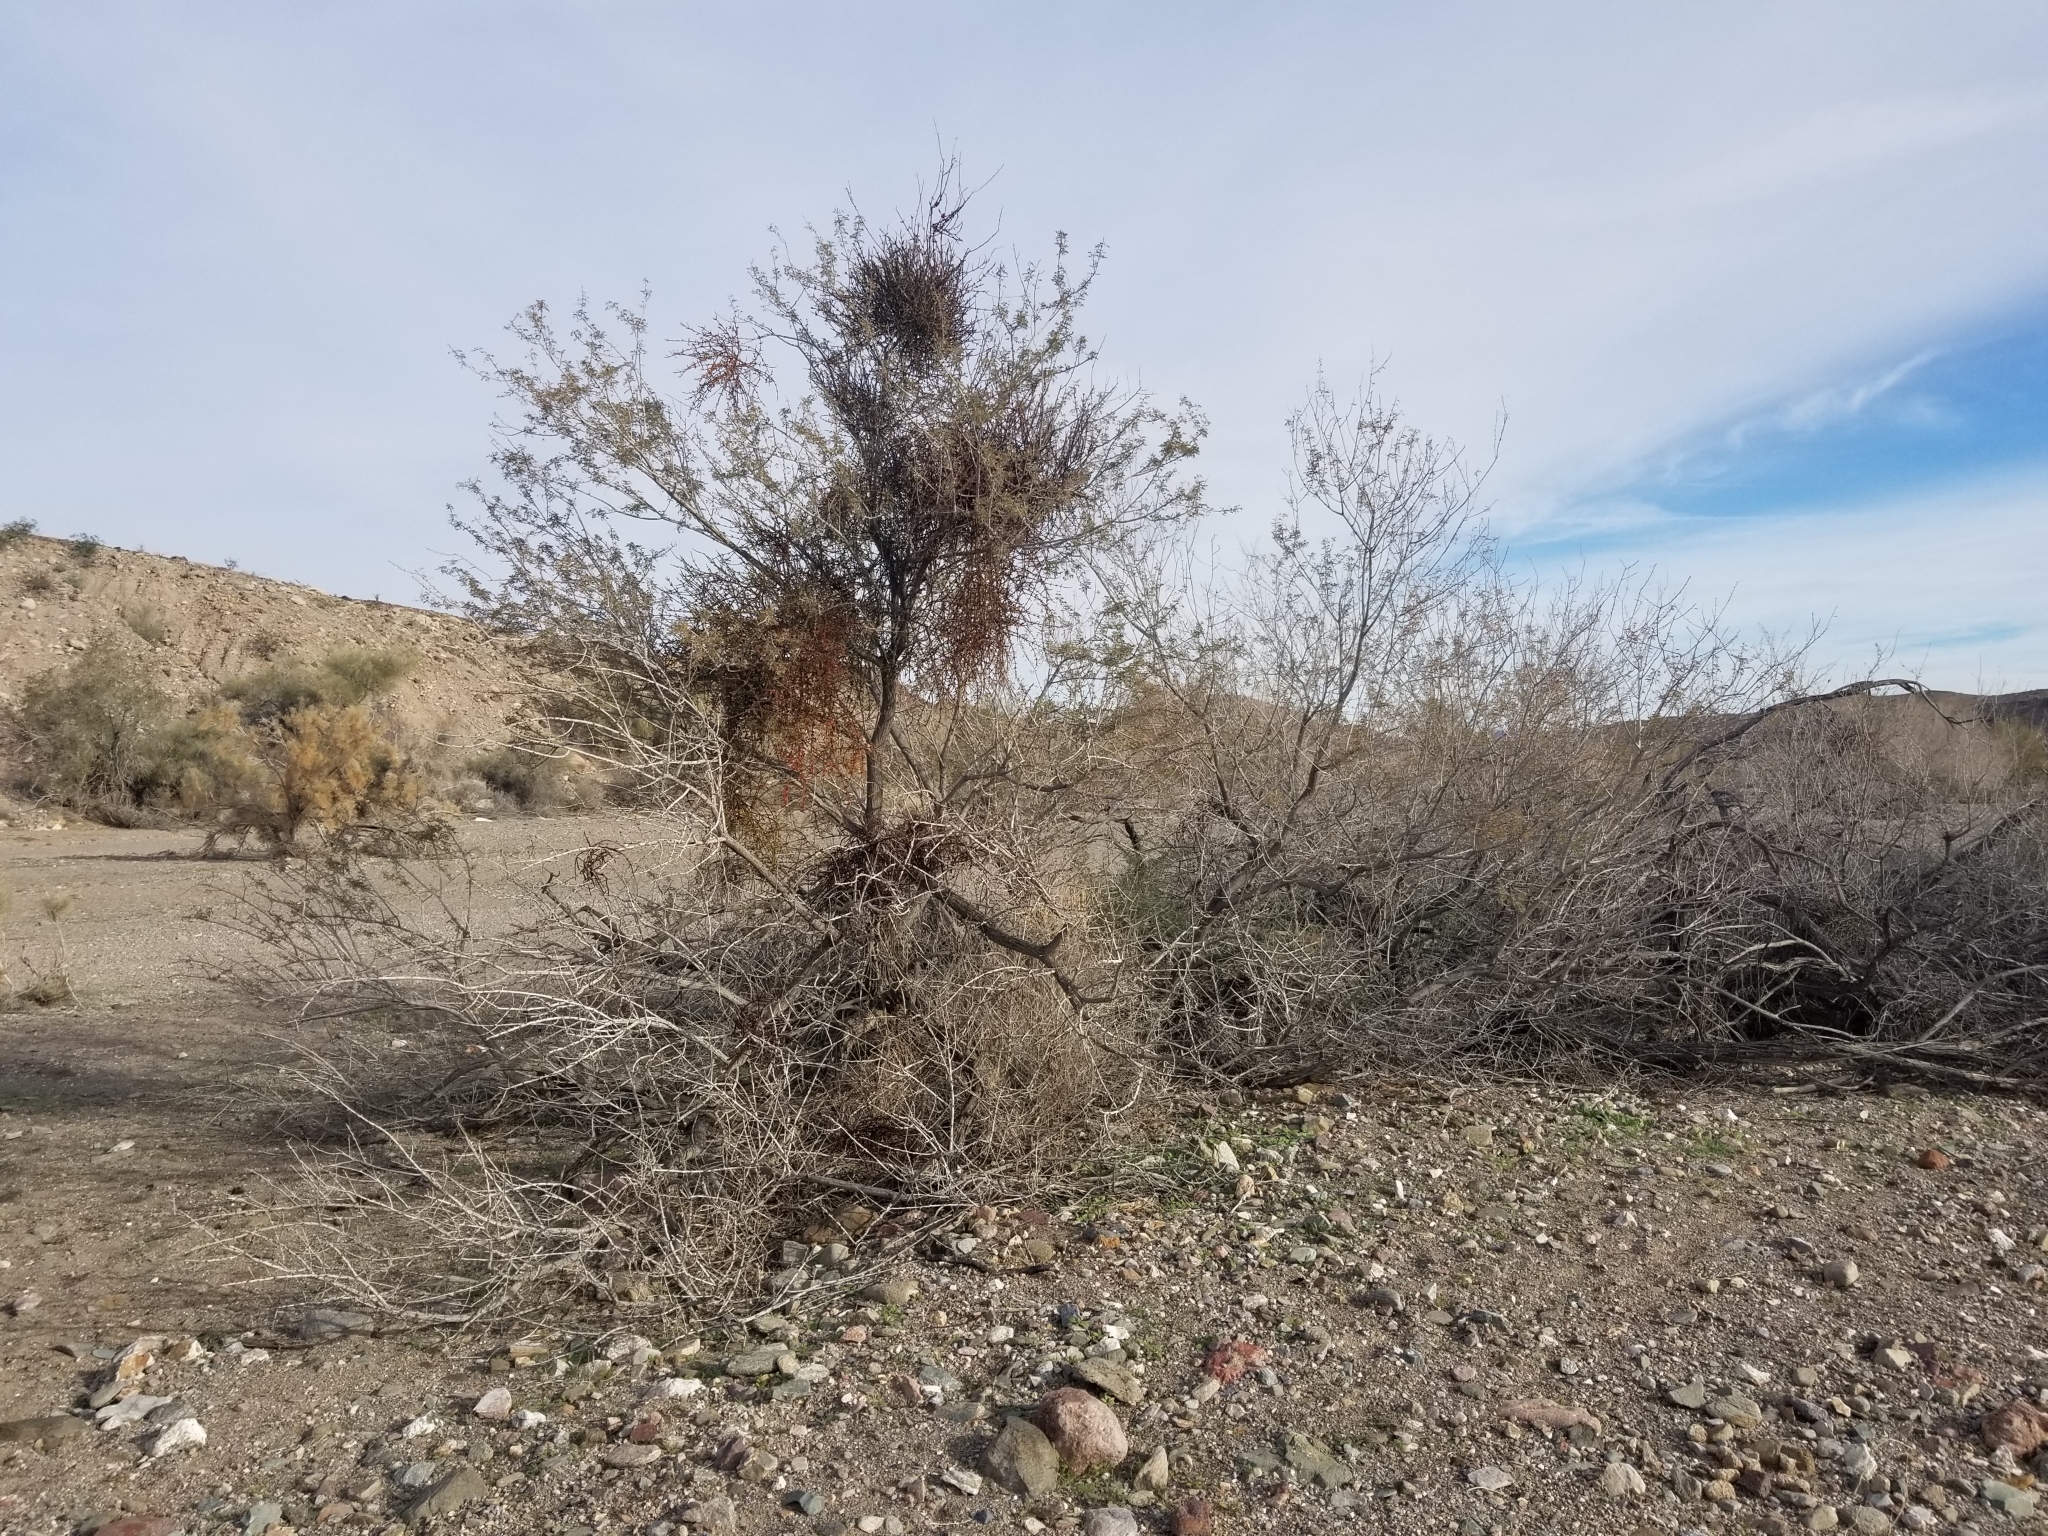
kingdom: Plantae
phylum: Tracheophyta
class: Magnoliopsida
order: Santalales
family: Viscaceae
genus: Phoradendron
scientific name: Phoradendron californicum
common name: Acacia mistletoe
